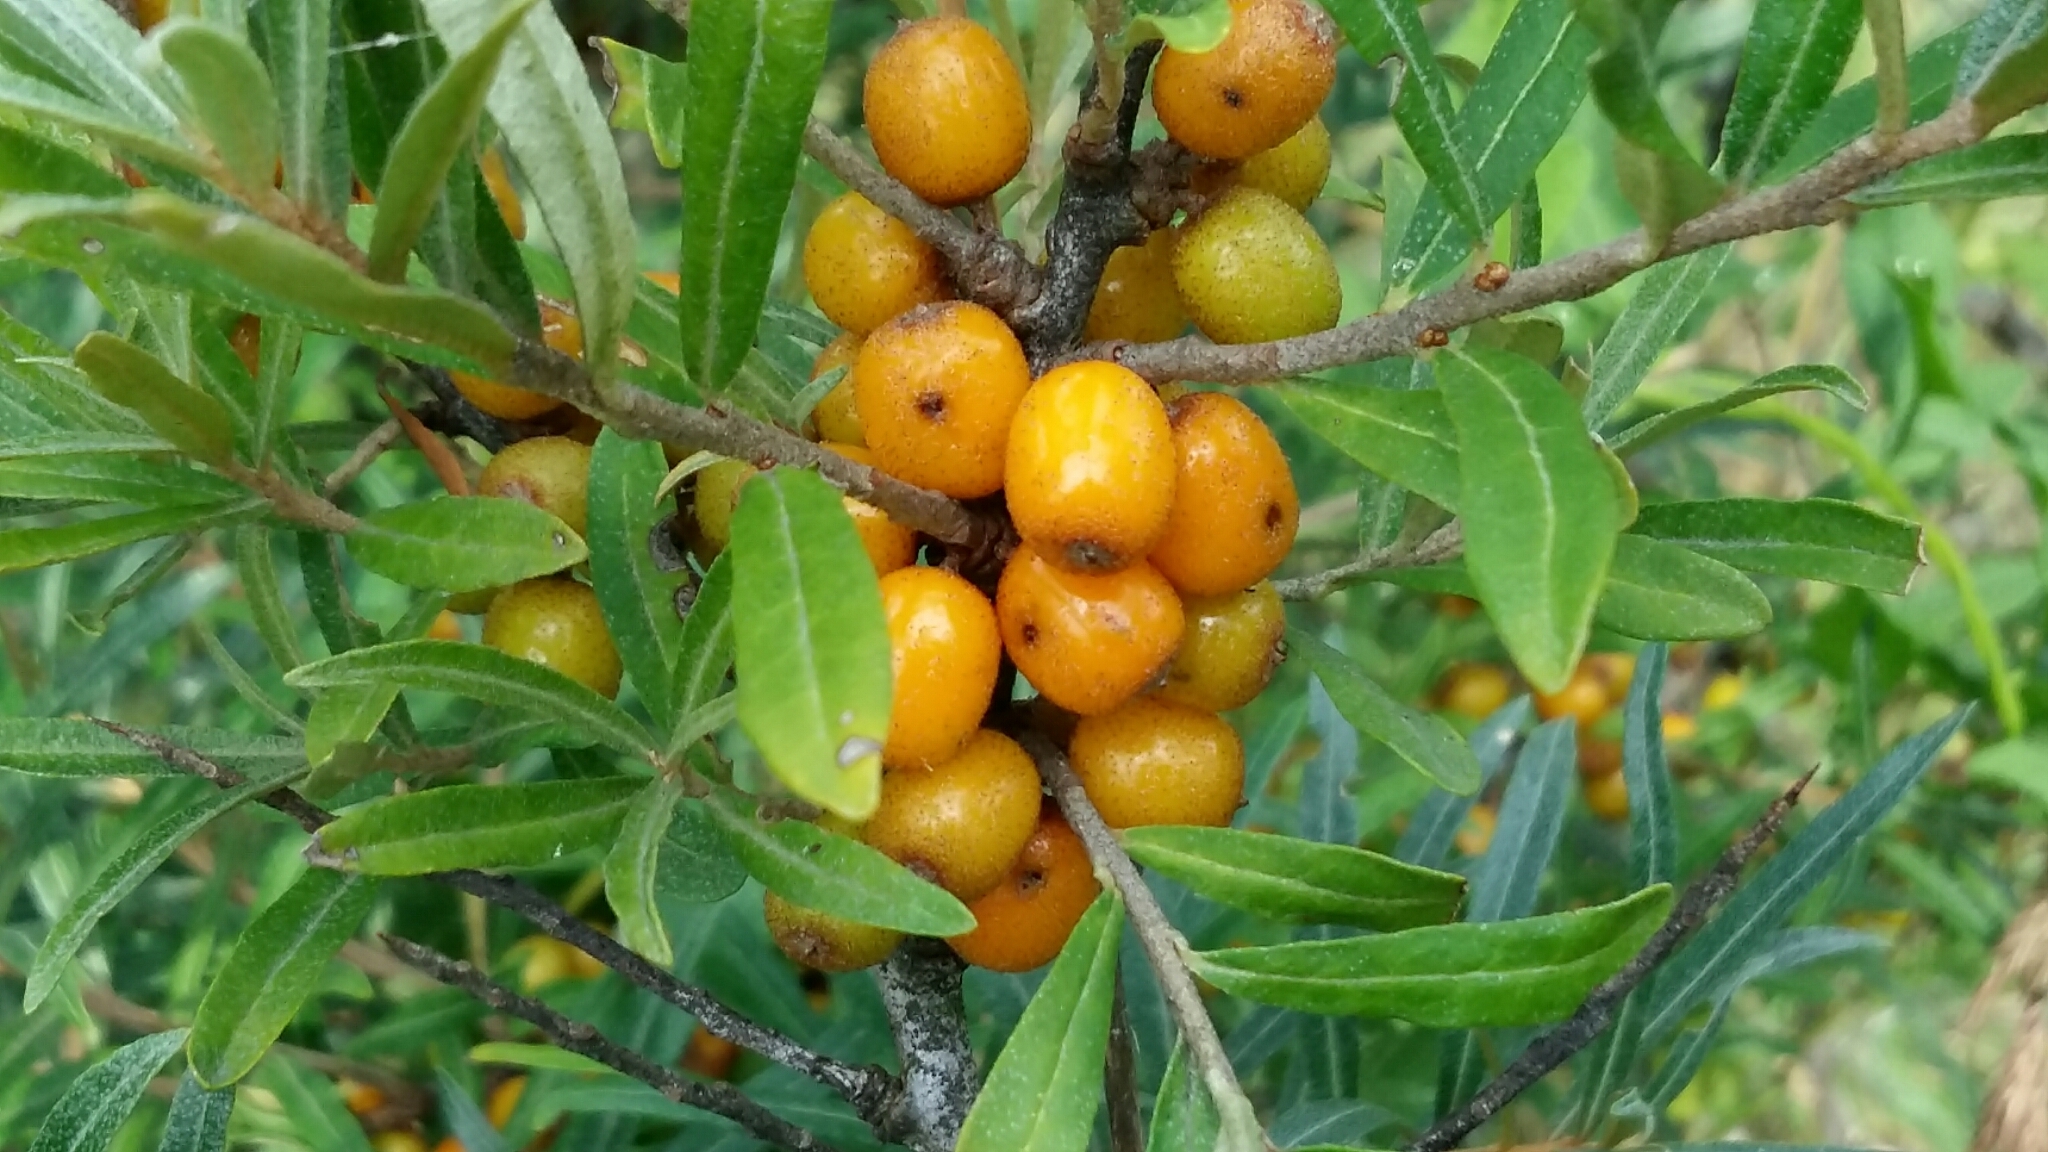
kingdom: Animalia
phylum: Arthropoda
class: Insecta
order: Diptera
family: Tephritidae
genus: Rhagoletis
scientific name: Rhagoletis batava
